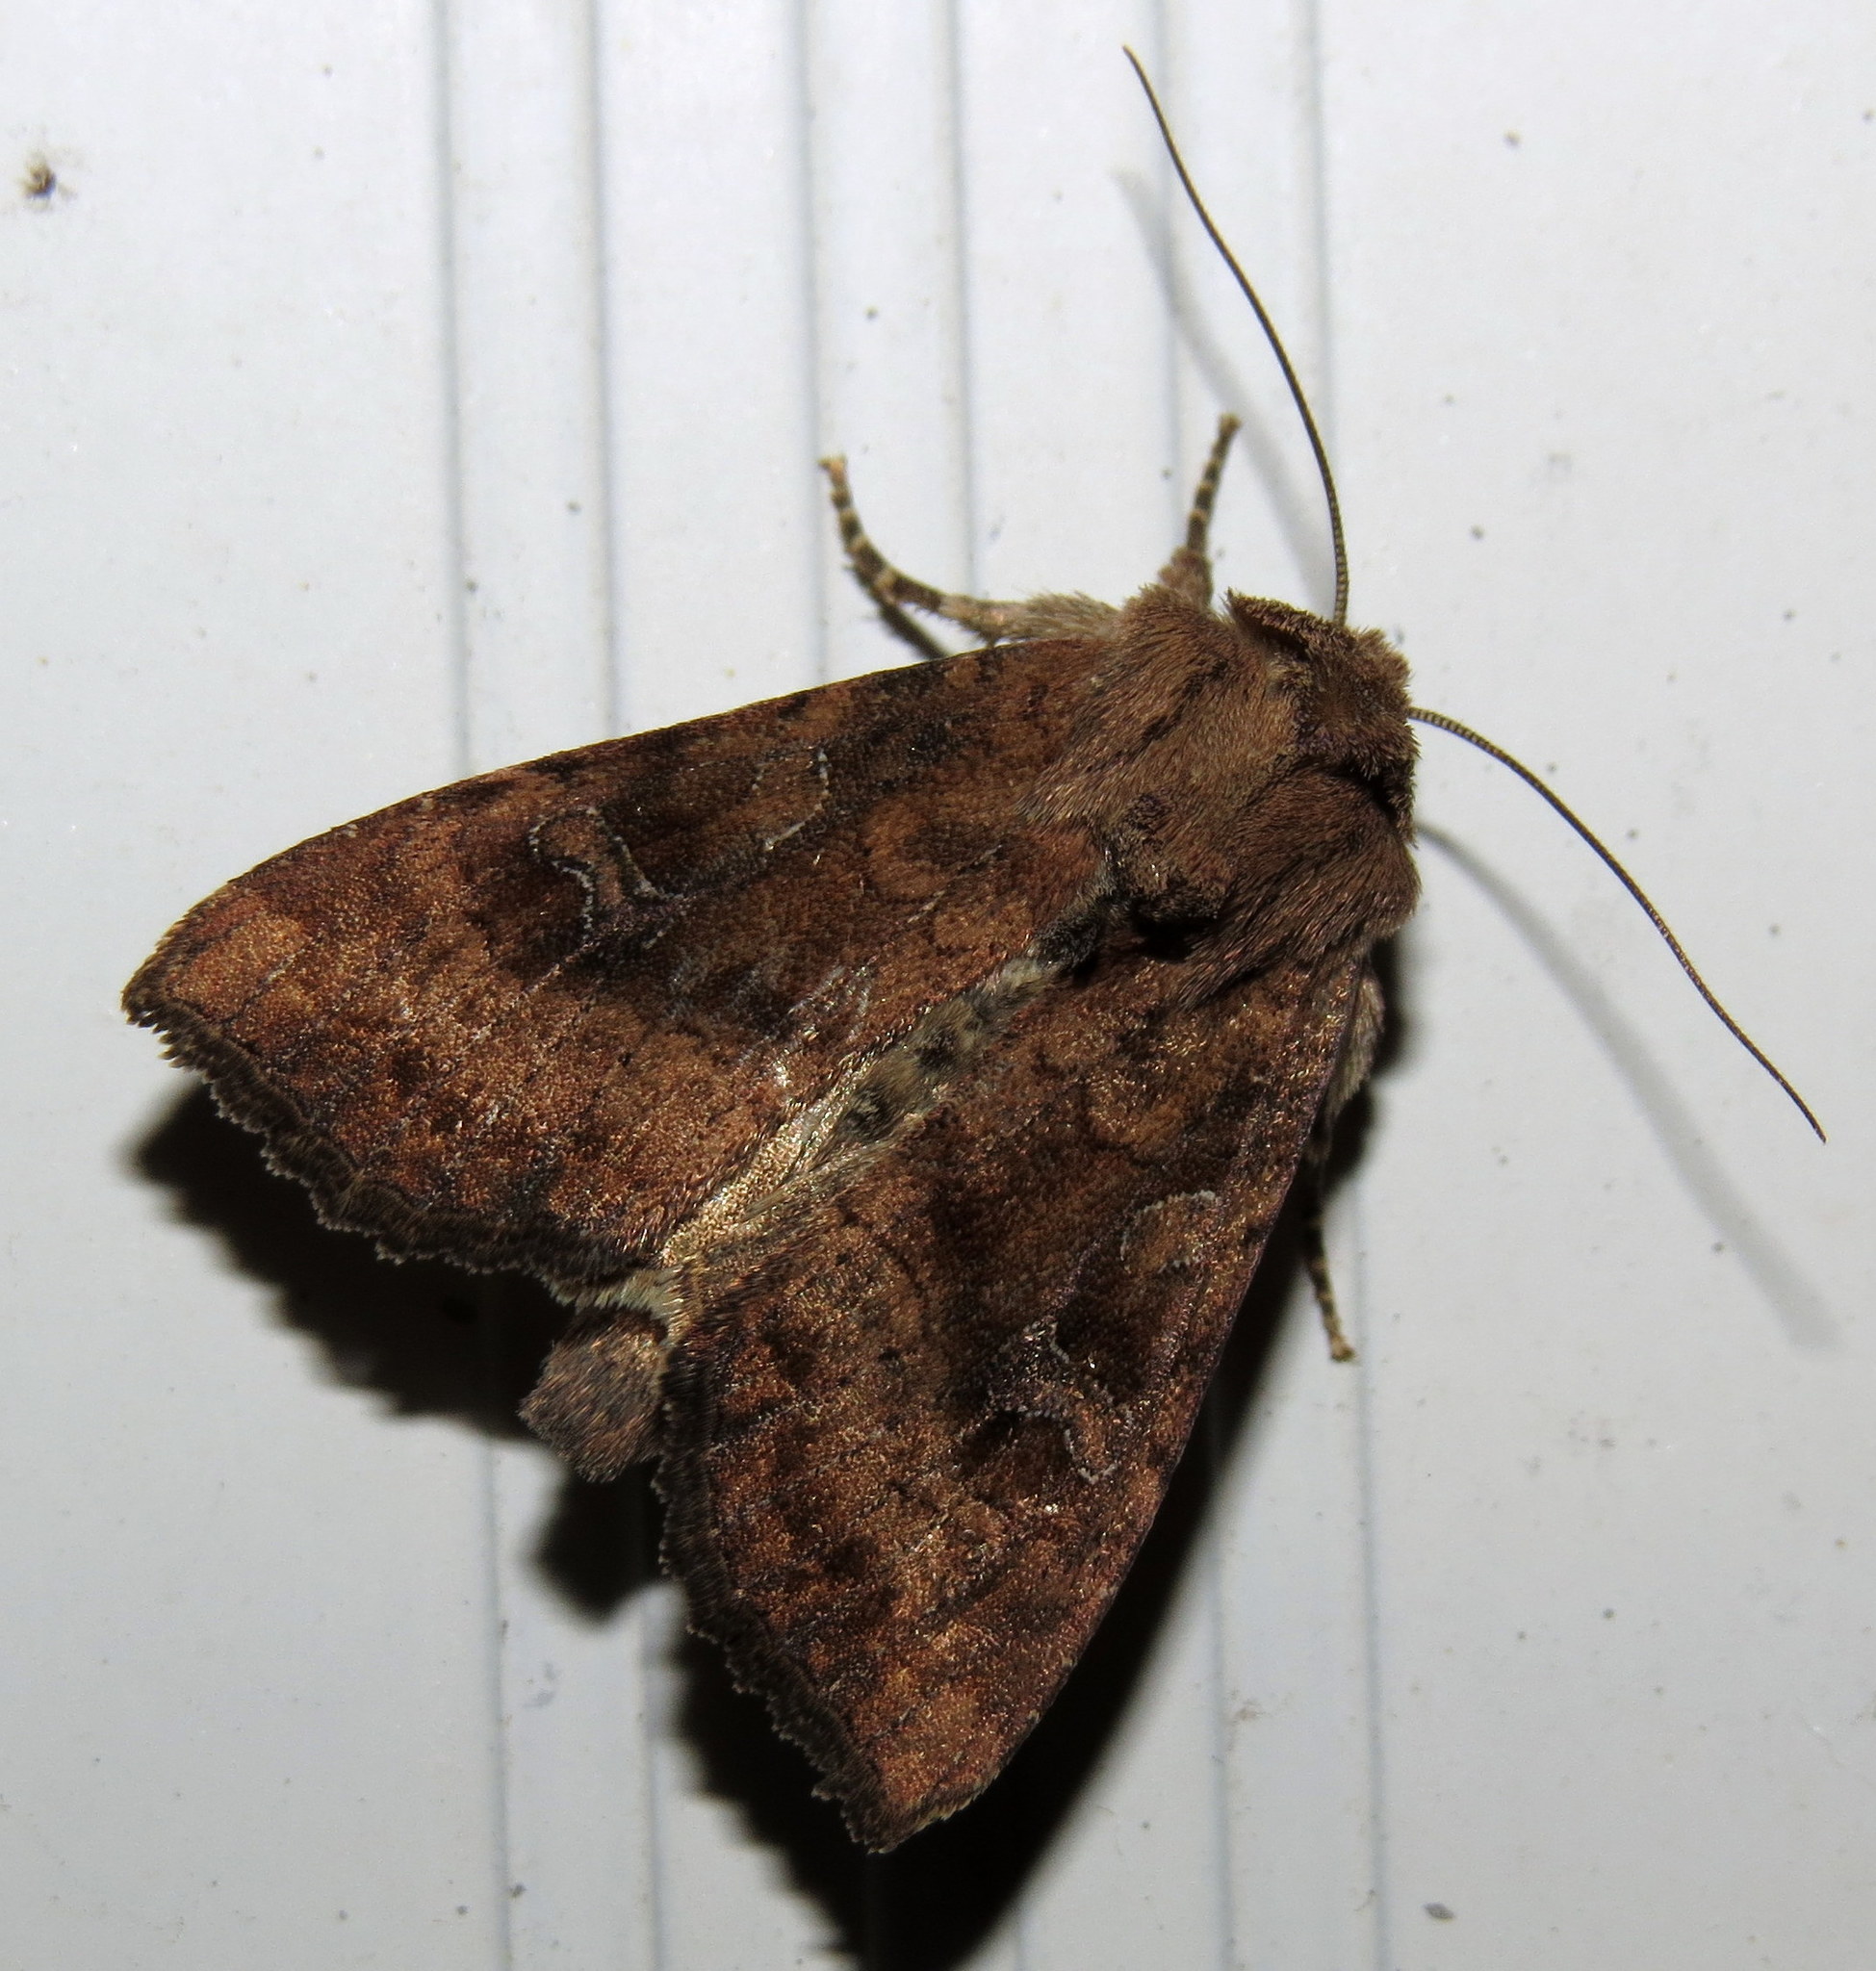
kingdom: Animalia
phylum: Arthropoda
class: Insecta
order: Lepidoptera
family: Noctuidae
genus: Loscopia
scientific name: Loscopia velata
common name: Veiled ear moth
